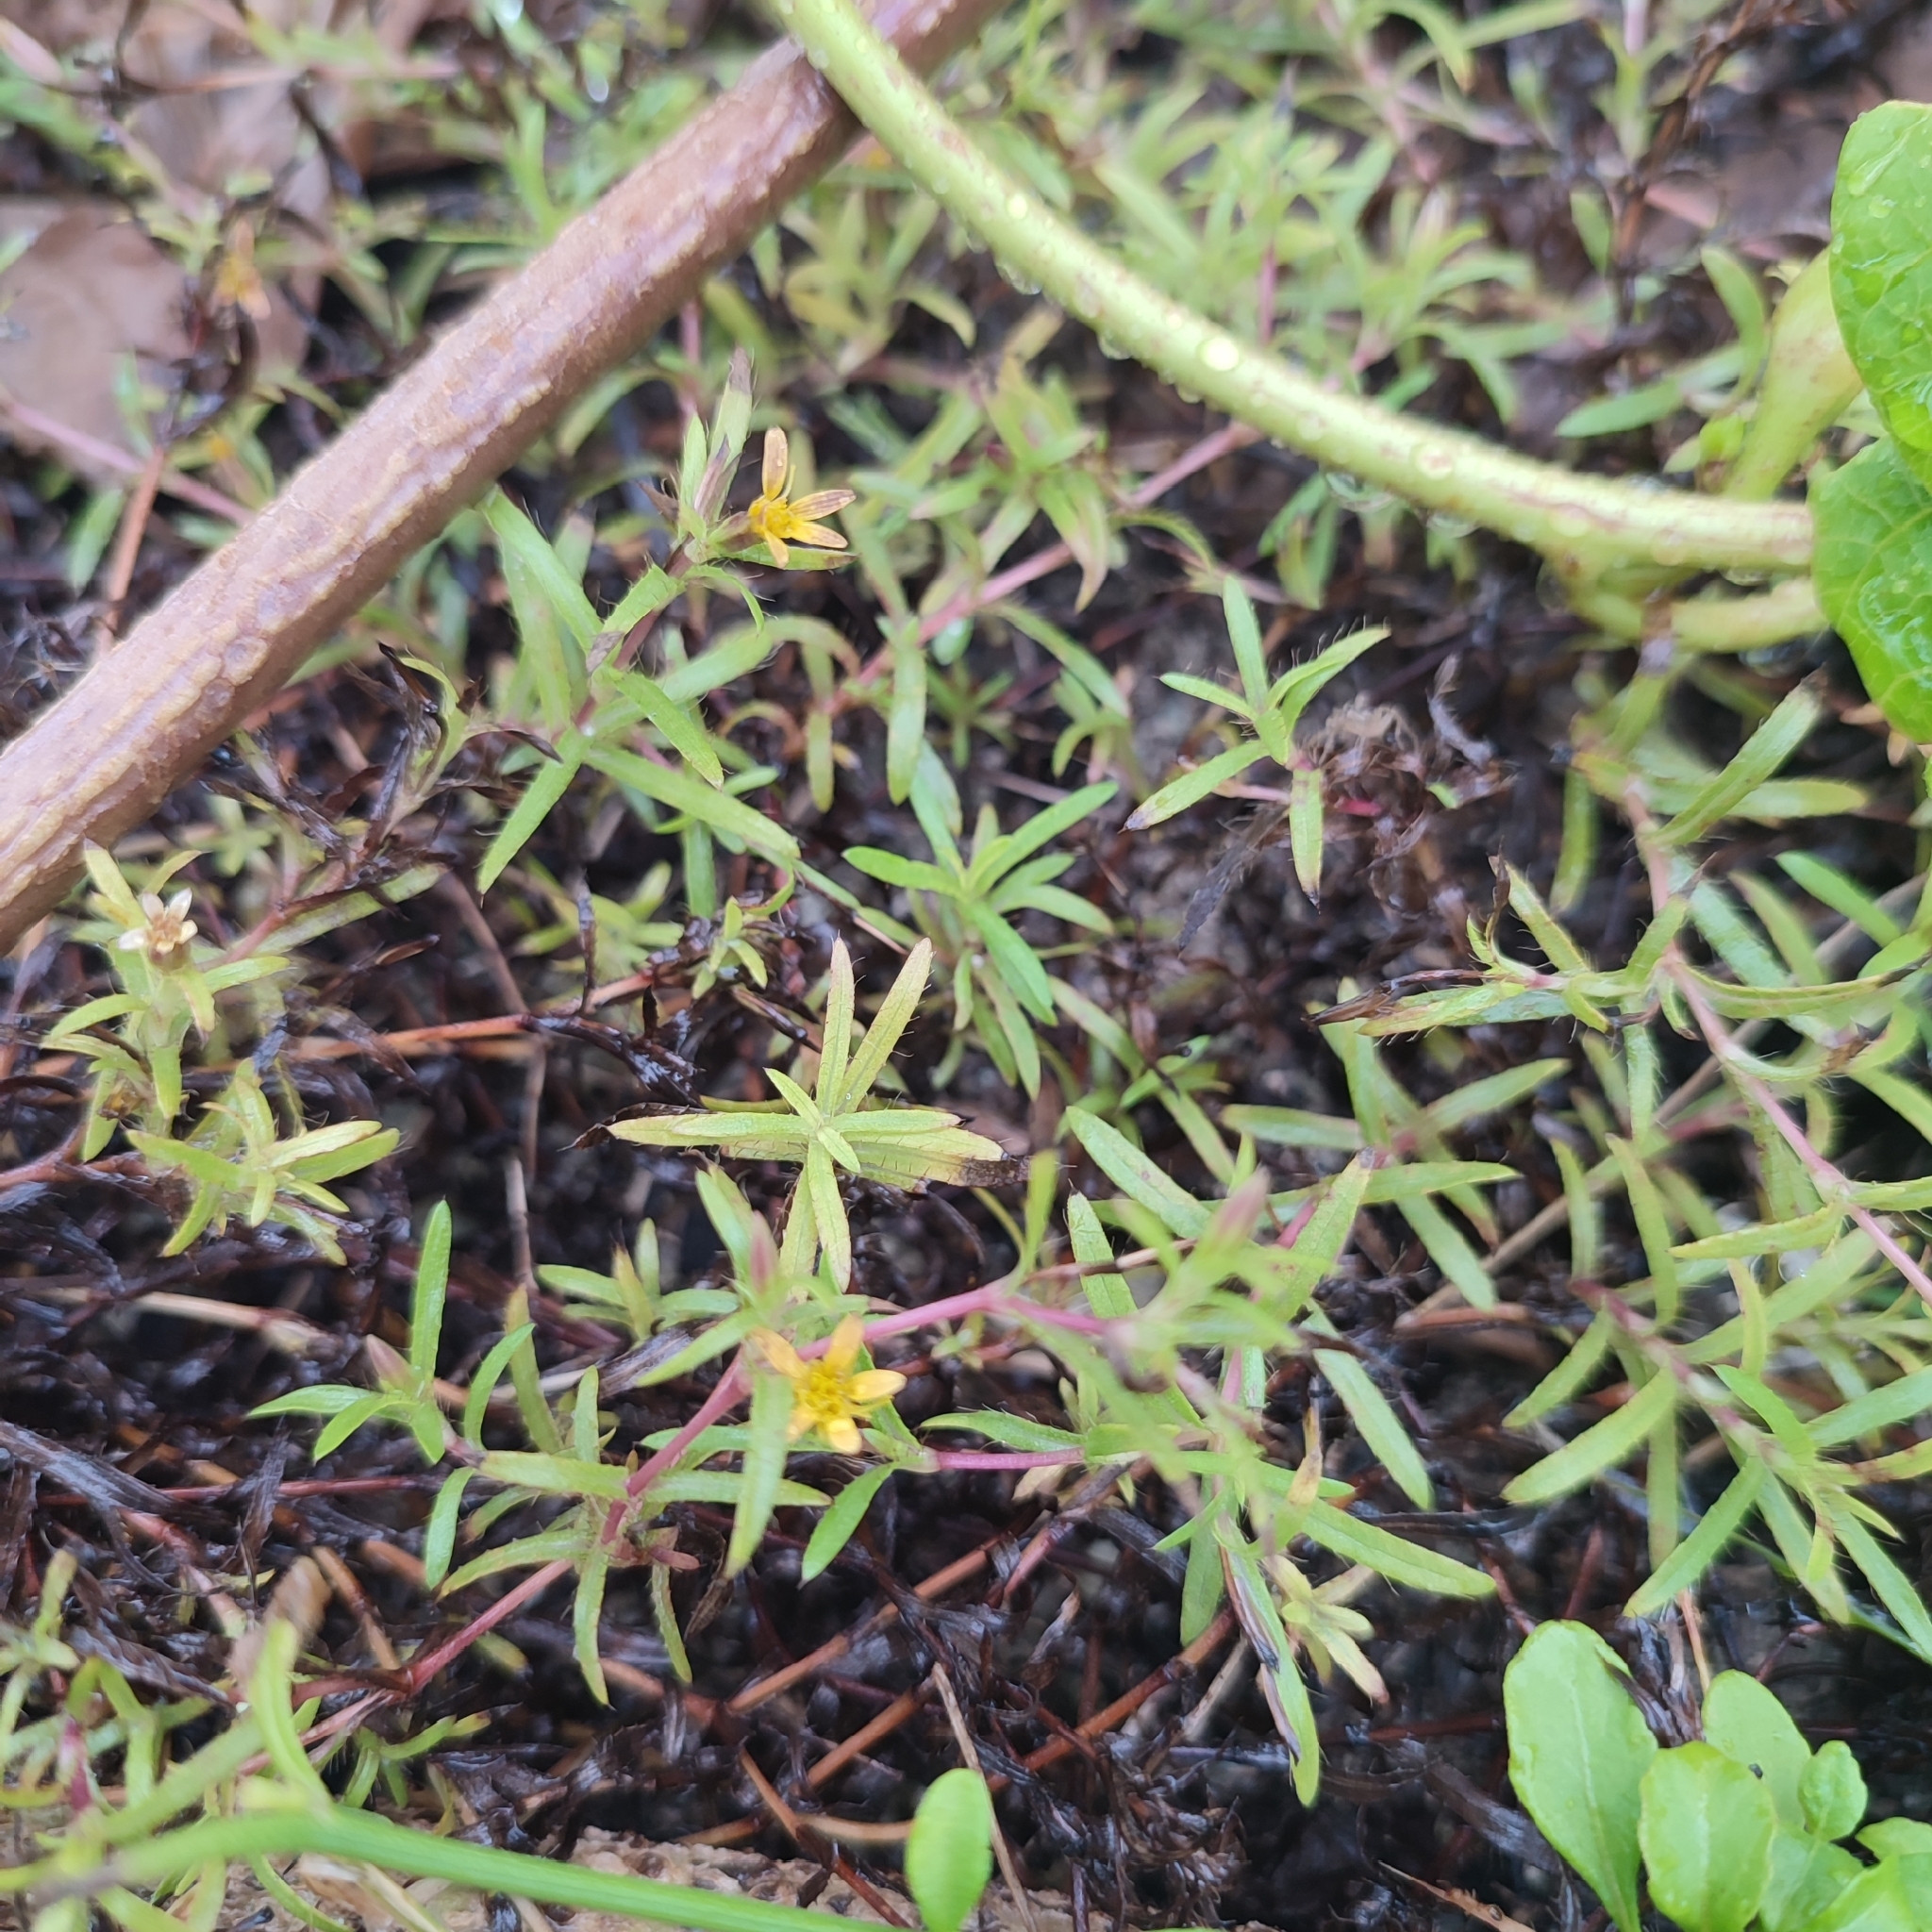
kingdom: Plantae
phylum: Tracheophyta
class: Magnoliopsida
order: Asterales
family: Asteraceae
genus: Pectis
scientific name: Pectis prostrata
